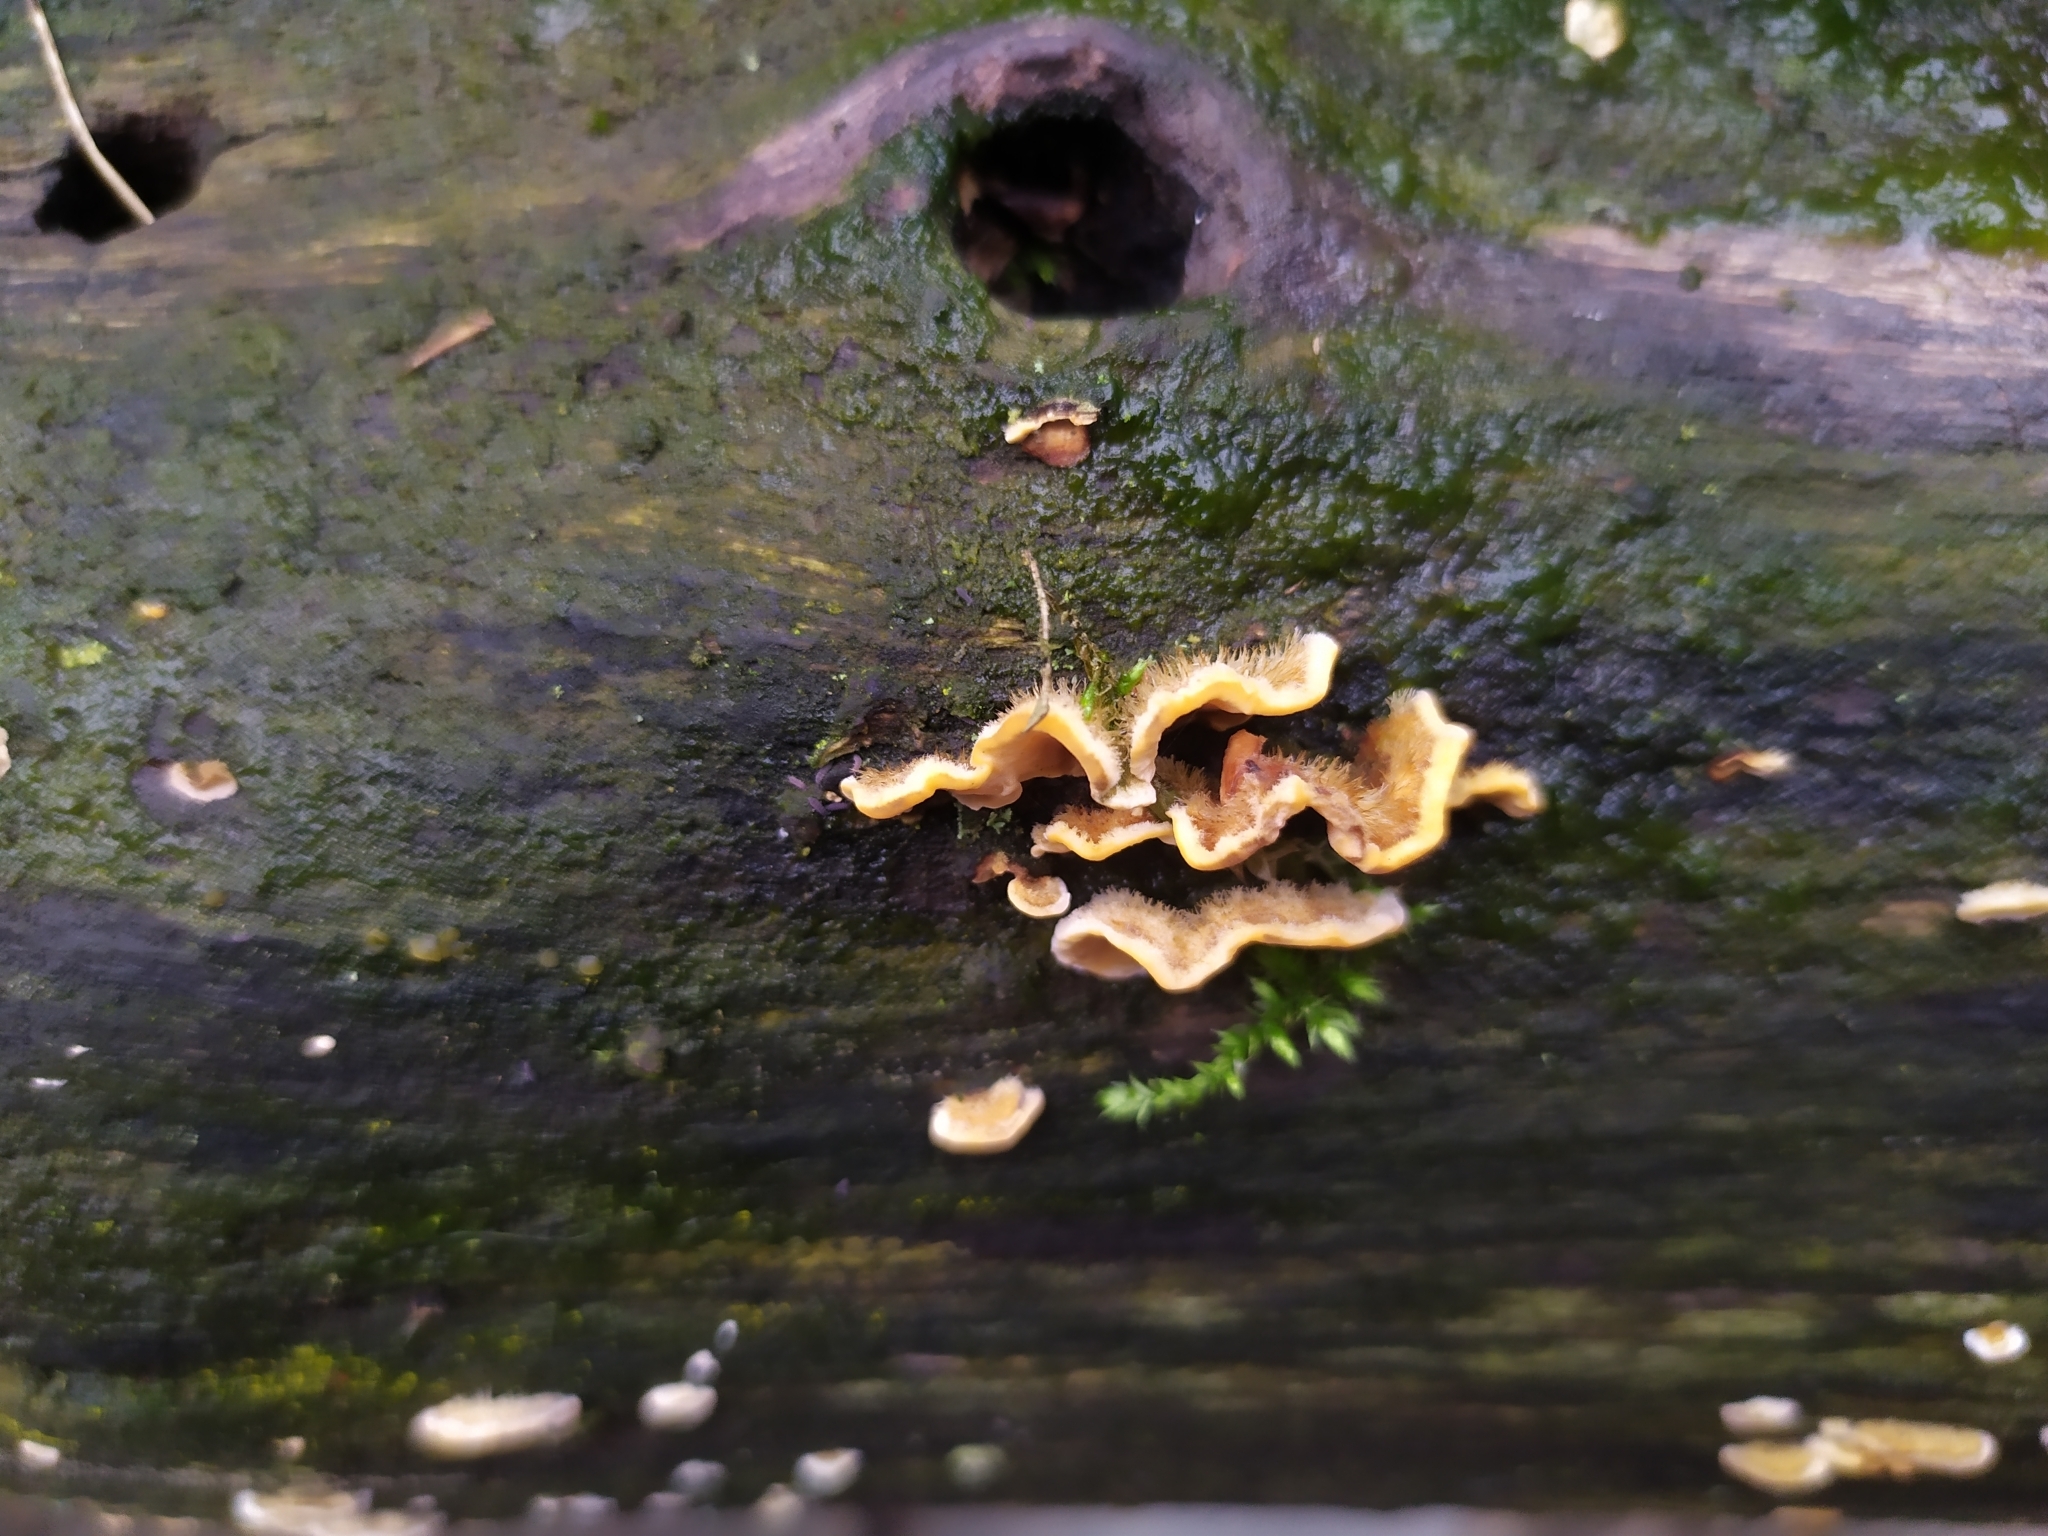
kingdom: Fungi
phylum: Basidiomycota
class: Agaricomycetes
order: Russulales
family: Stereaceae
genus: Stereum
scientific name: Stereum hirsutum
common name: Hairy curtain crust
